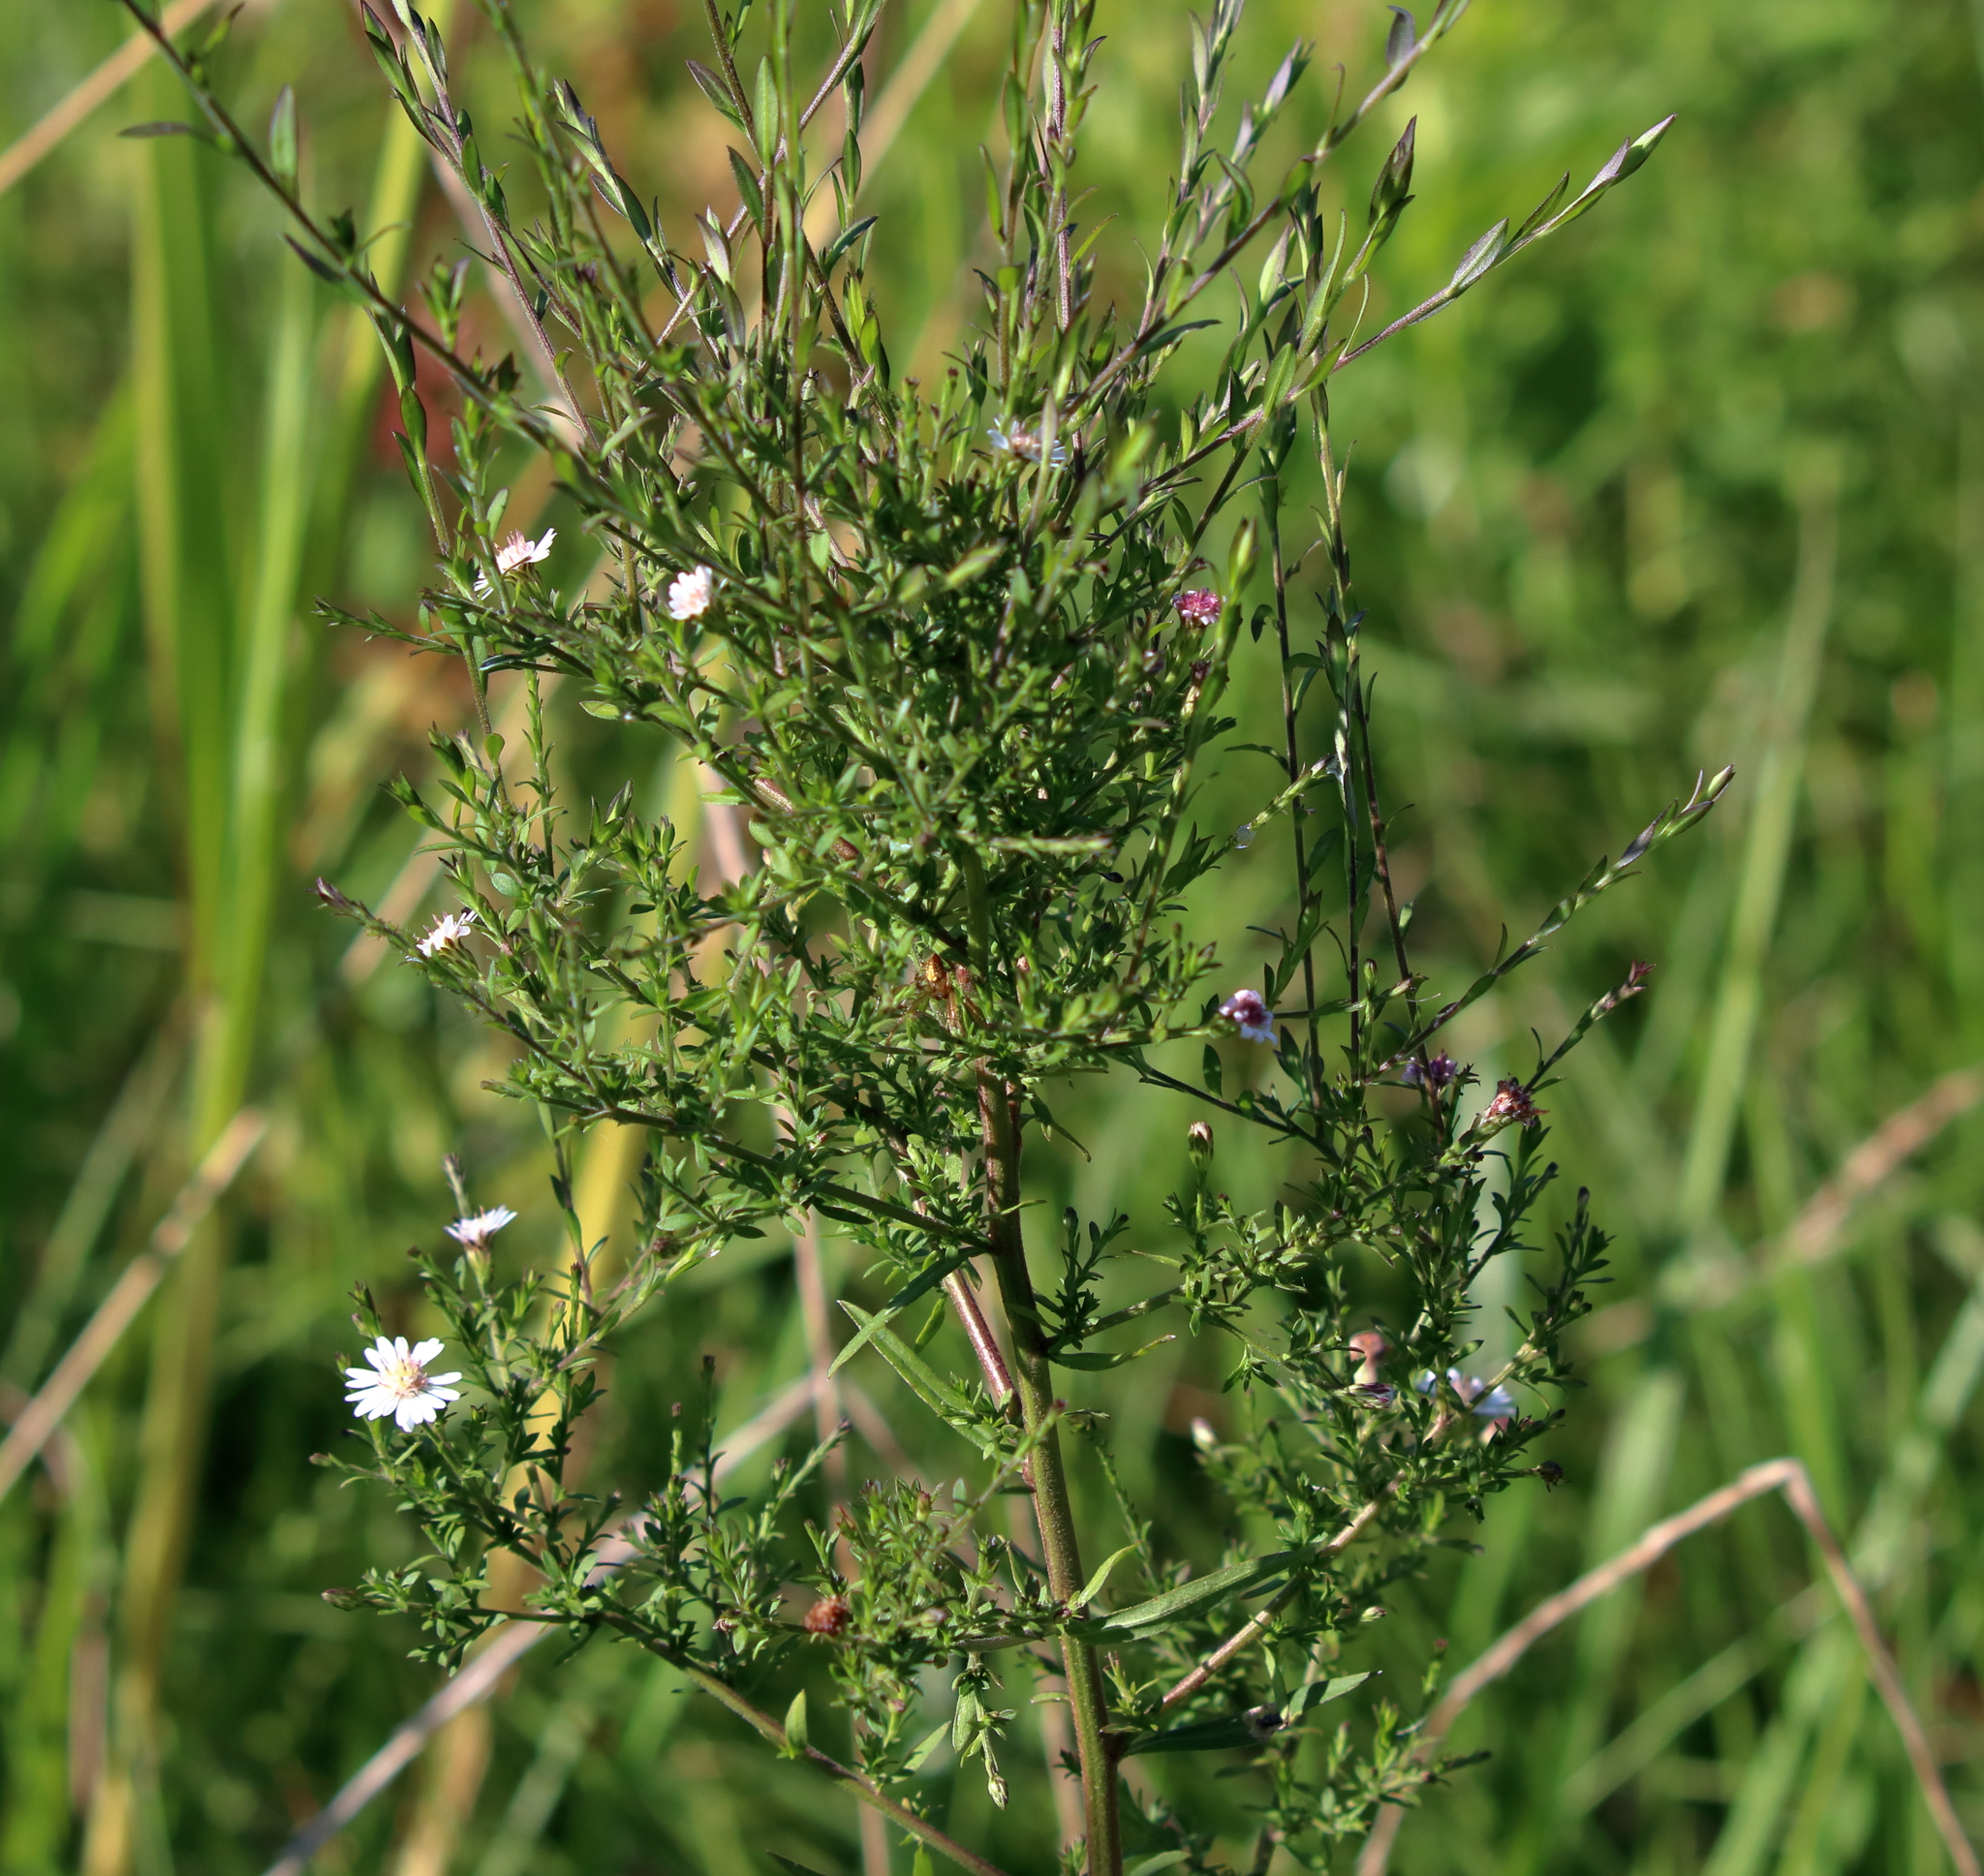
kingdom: Plantae
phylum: Tracheophyta
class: Magnoliopsida
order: Asterales
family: Asteraceae
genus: Symphyotrichum
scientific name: Symphyotrichum dumosum
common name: Bushy aster
